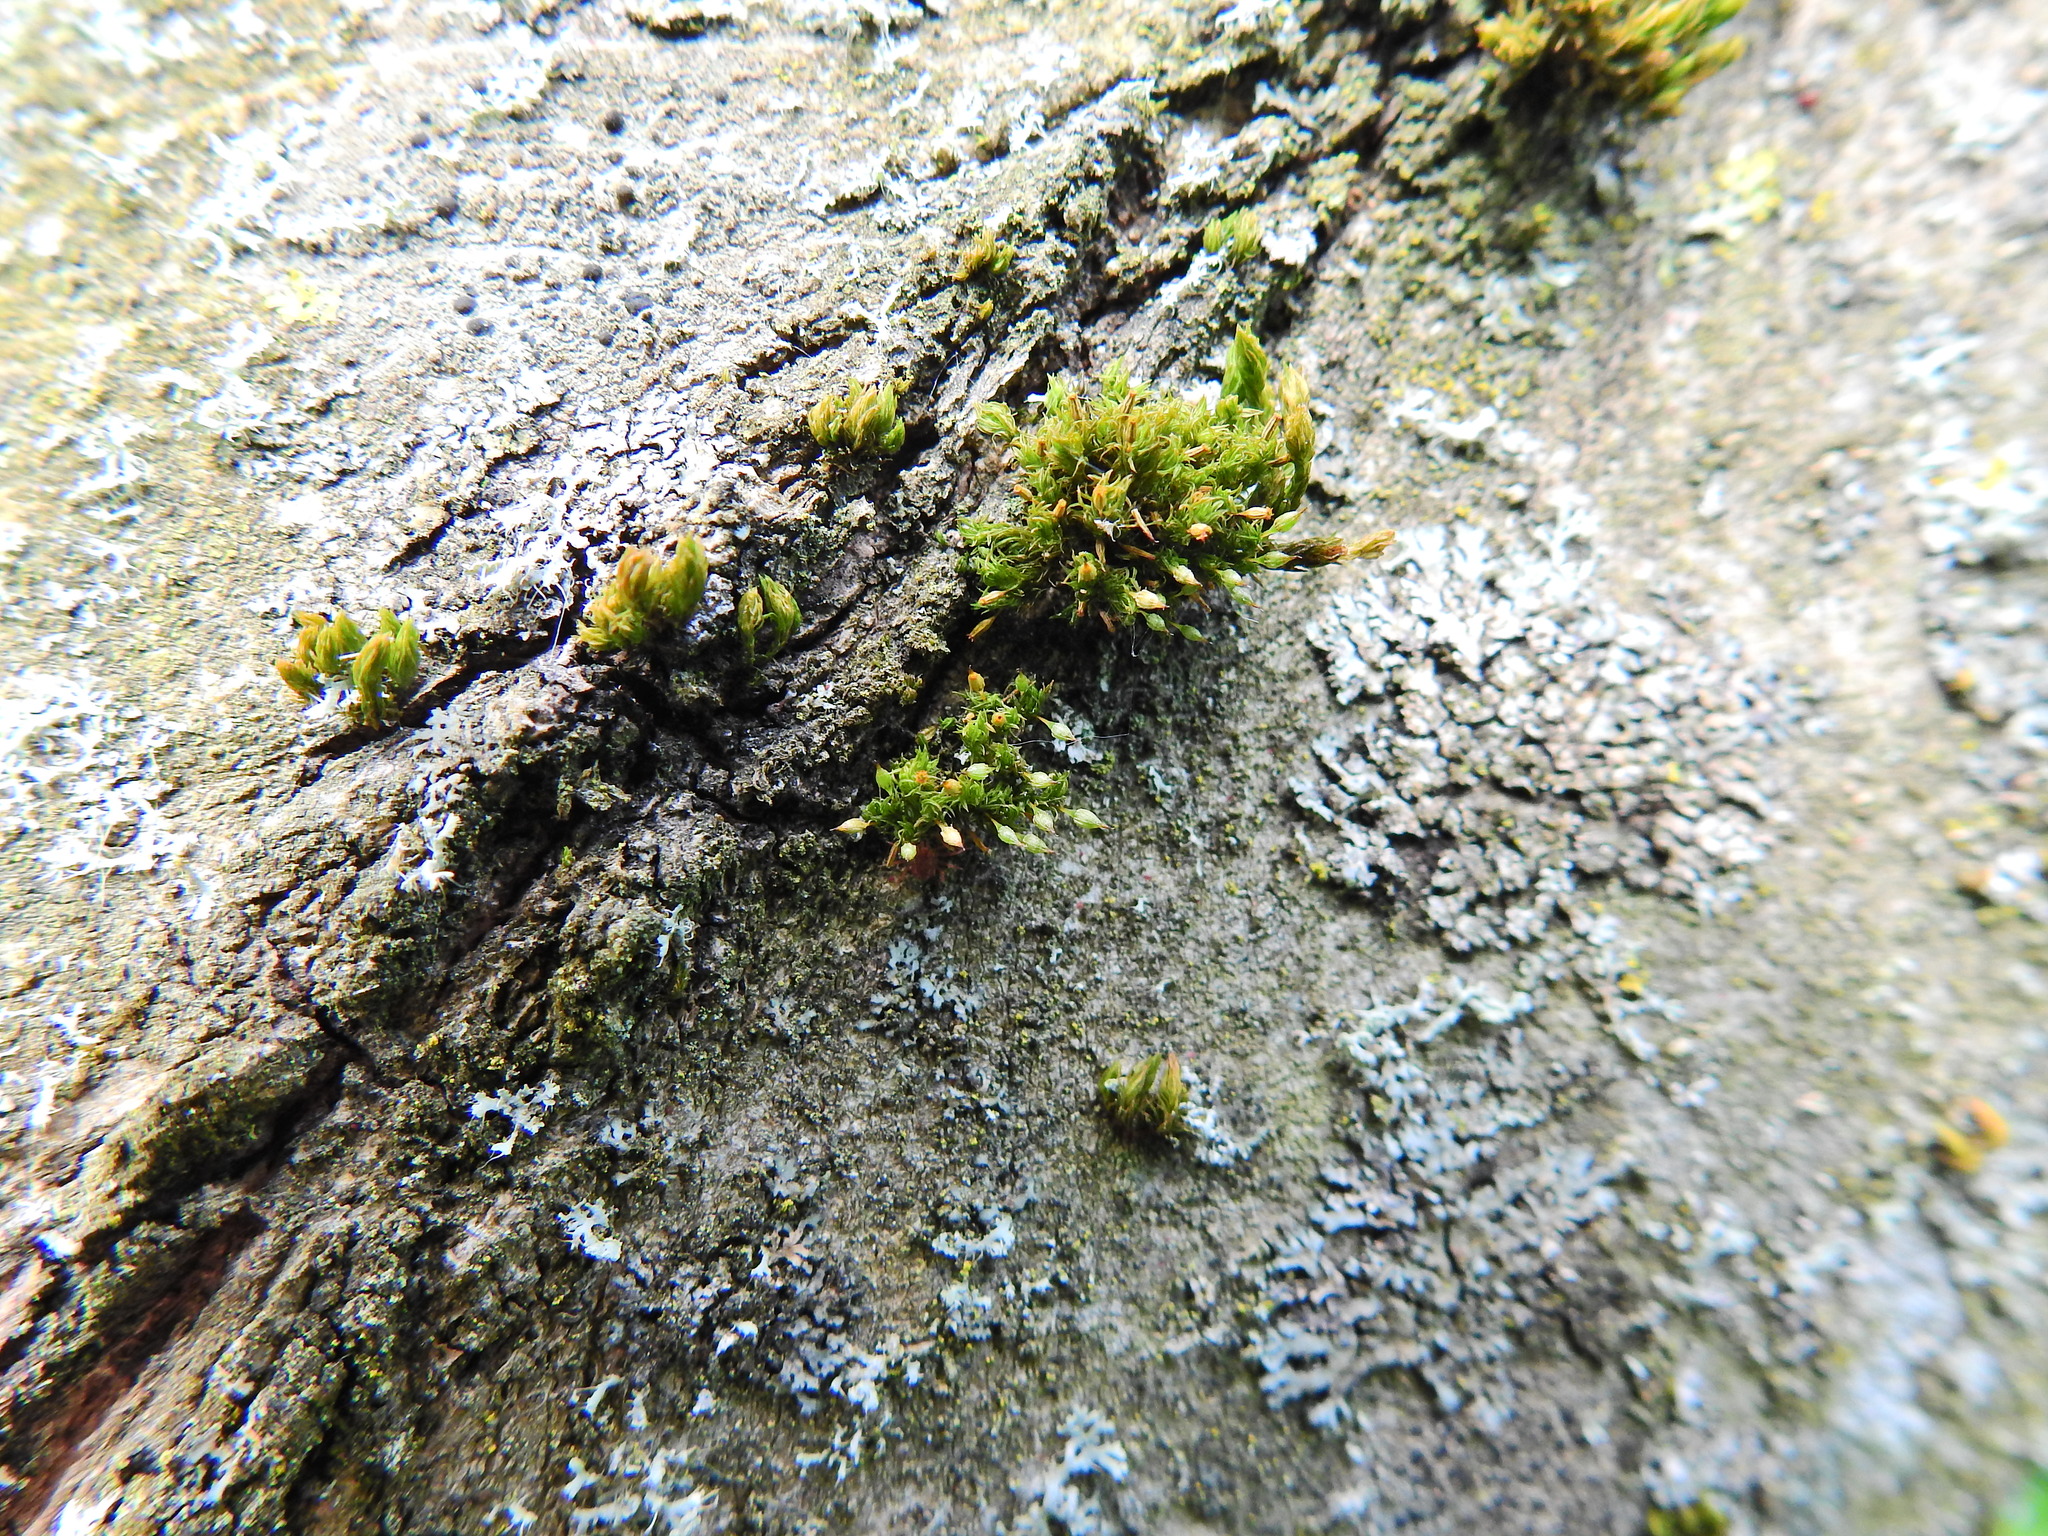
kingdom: Plantae
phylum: Bryophyta
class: Bryopsida
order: Orthotrichales
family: Orthotrichaceae
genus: Orthotrichum
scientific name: Orthotrichum pulchellum
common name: Elegant bristle-moss
